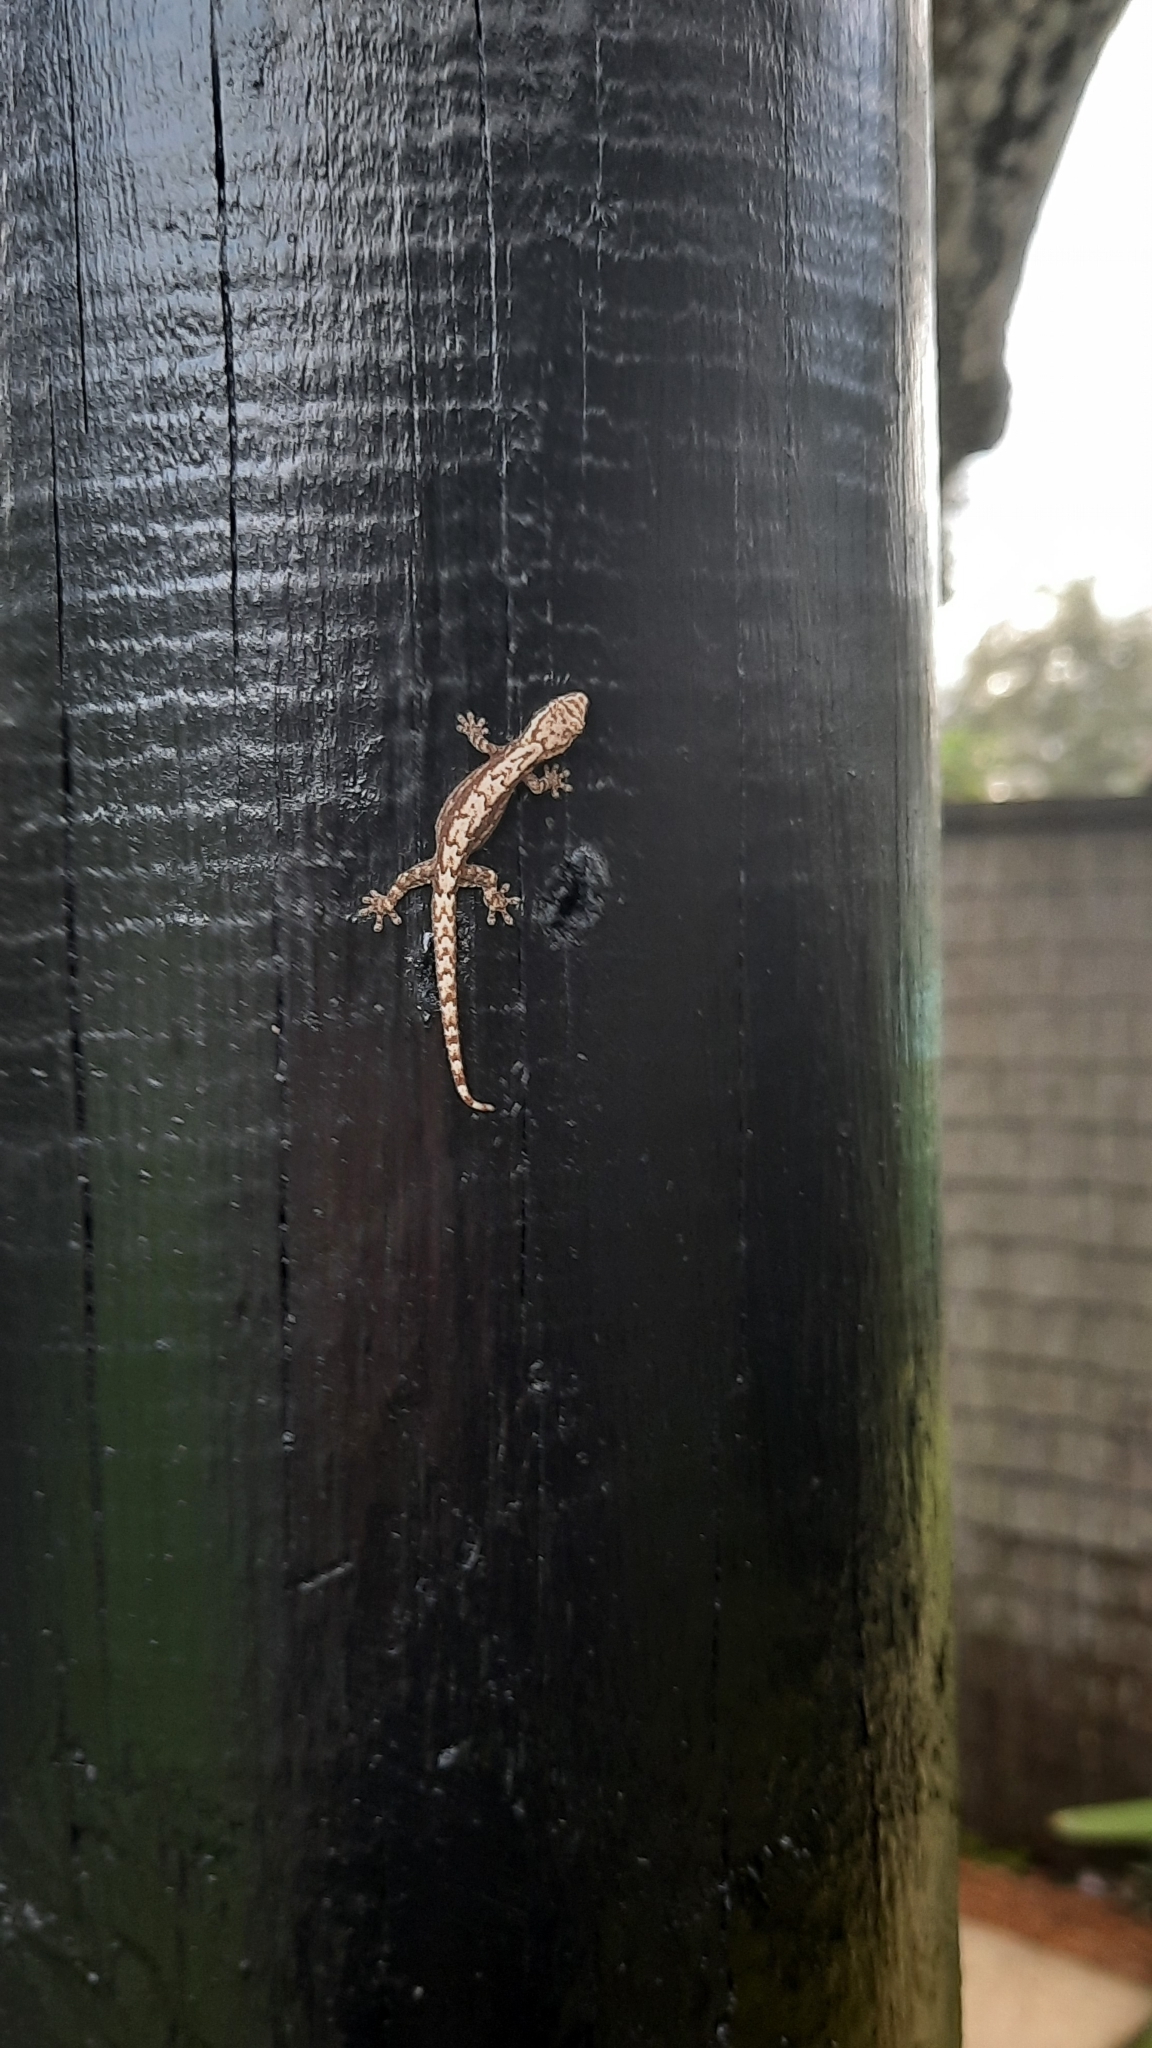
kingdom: Animalia
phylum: Chordata
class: Squamata
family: Gekkonidae
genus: Lepidodactylus
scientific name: Lepidodactylus lugubris
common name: Mourning gecko
